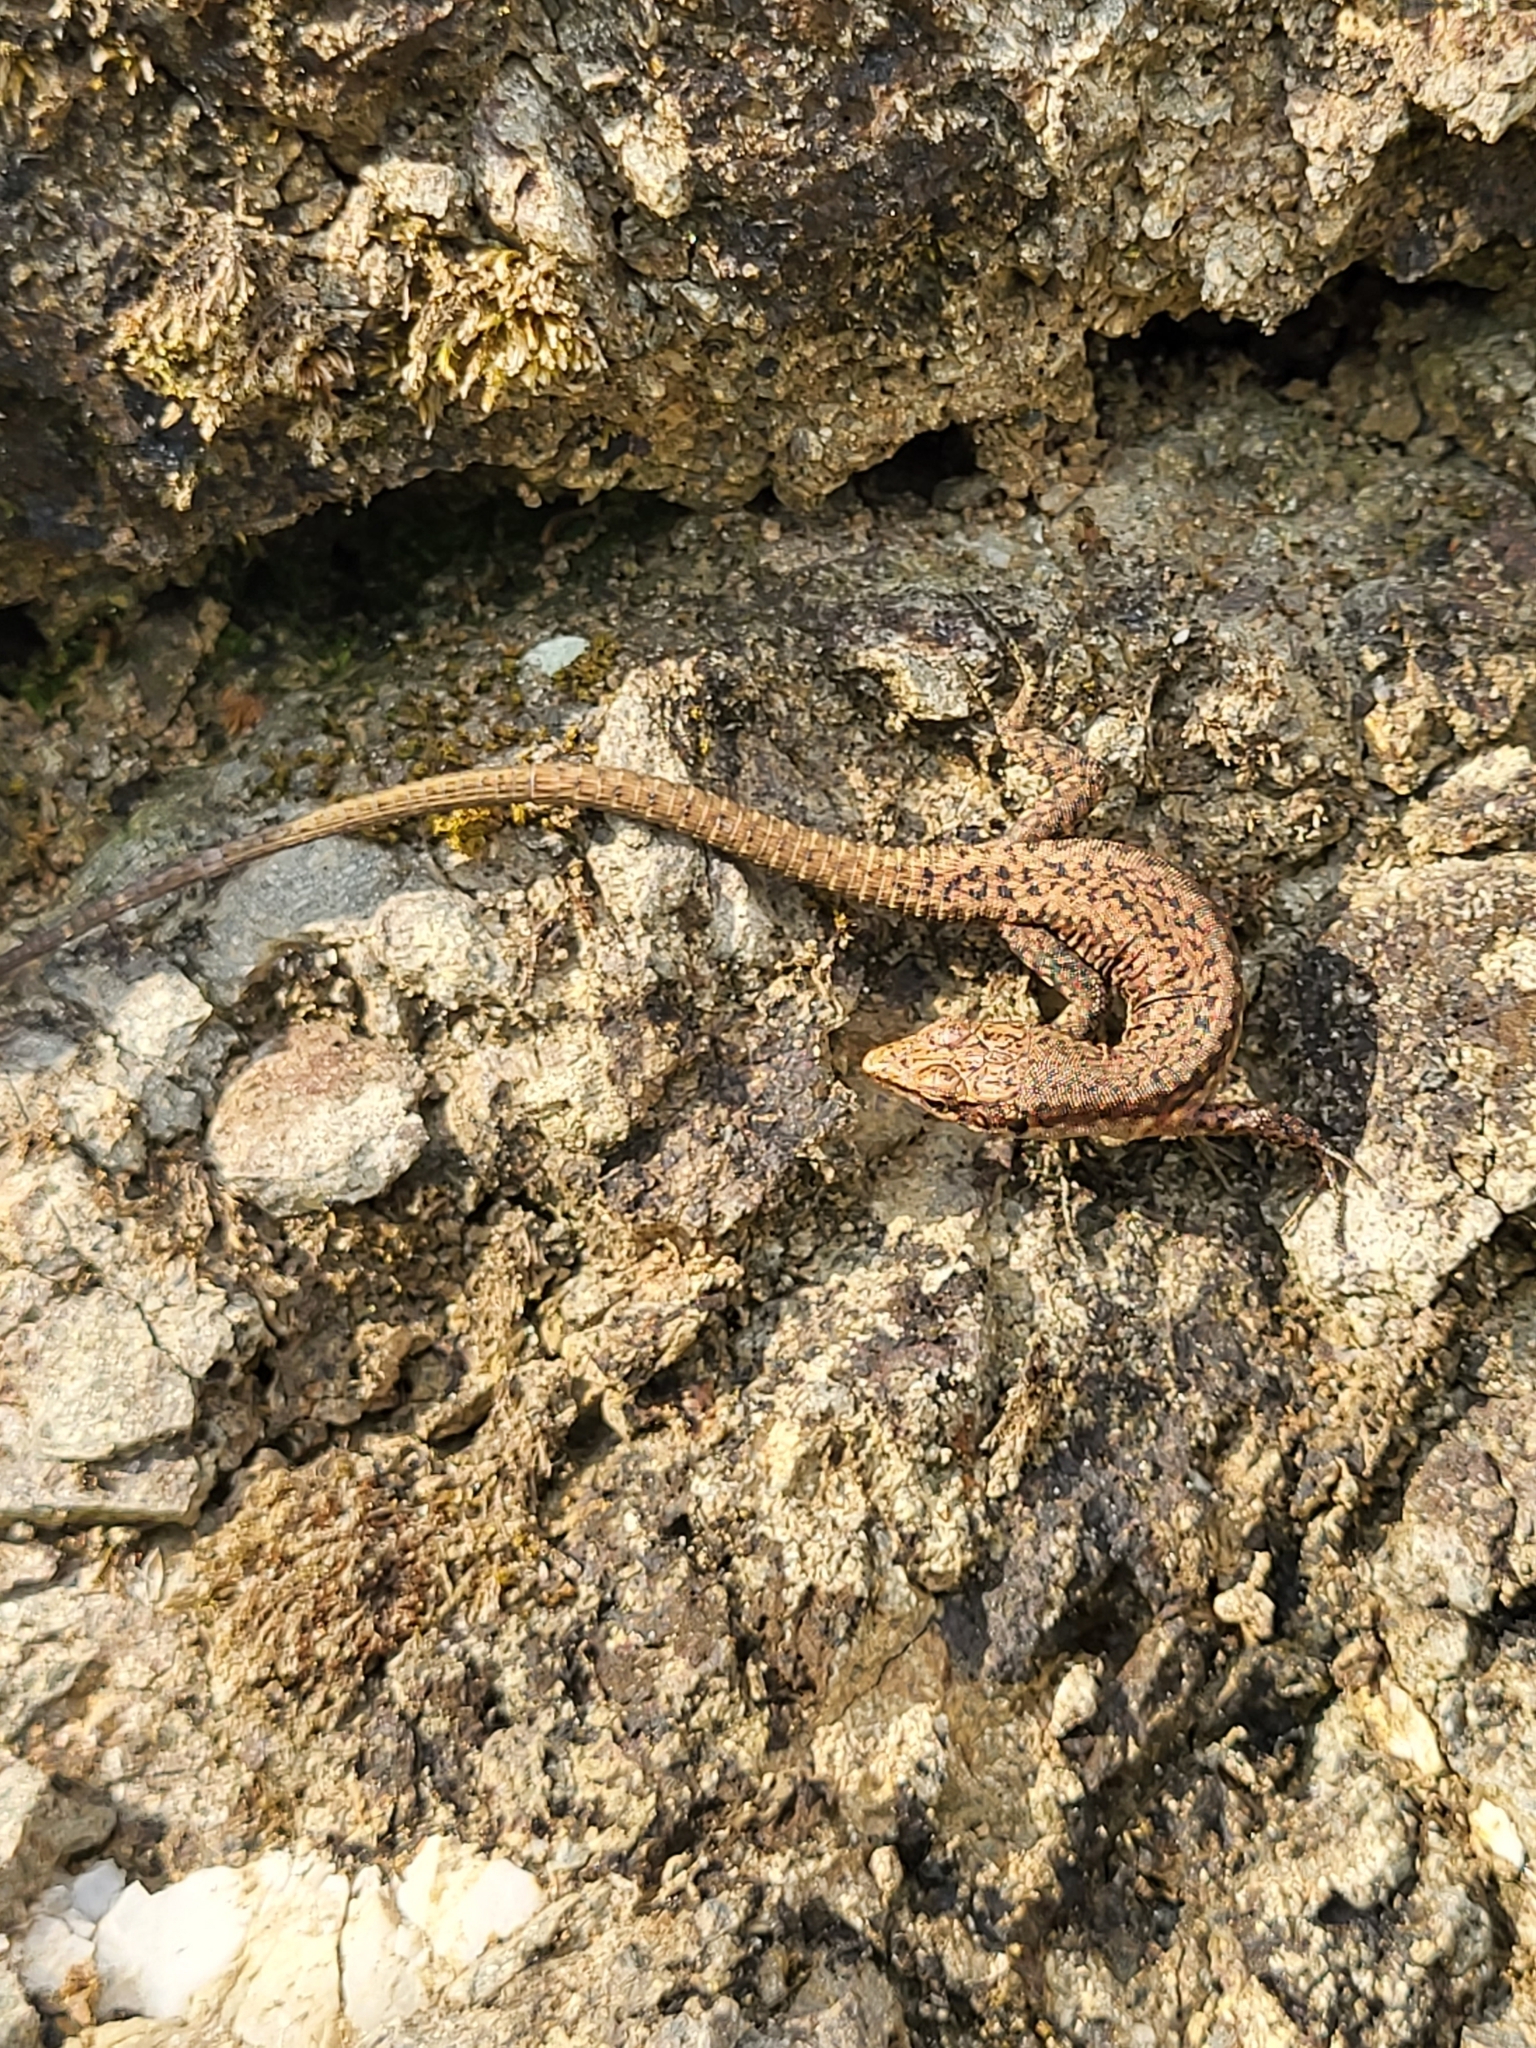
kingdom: Animalia
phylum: Chordata
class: Squamata
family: Lacertidae
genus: Darevskia
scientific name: Darevskia rudis
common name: Spiny-tailed lizard
